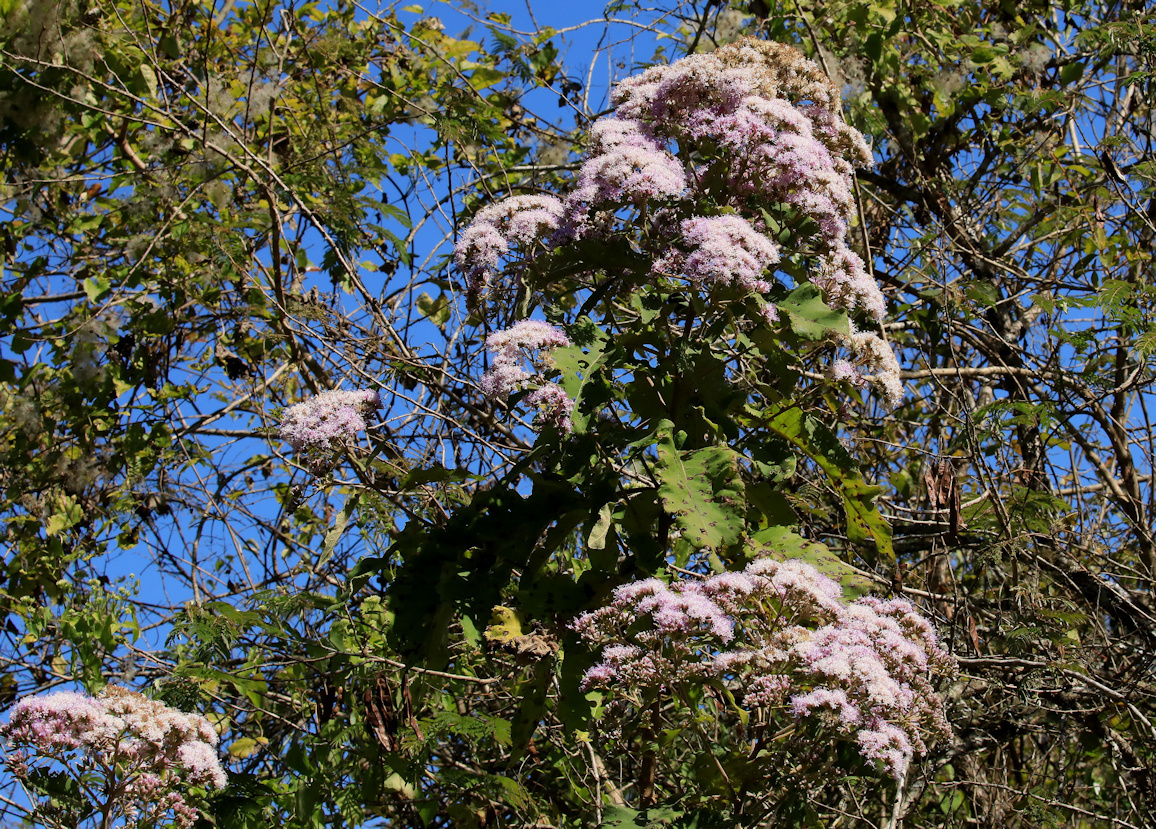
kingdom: Plantae
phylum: Tracheophyta
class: Magnoliopsida
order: Asterales
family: Asteraceae
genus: Gymnanthemum
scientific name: Gymnanthemum myrianthum
